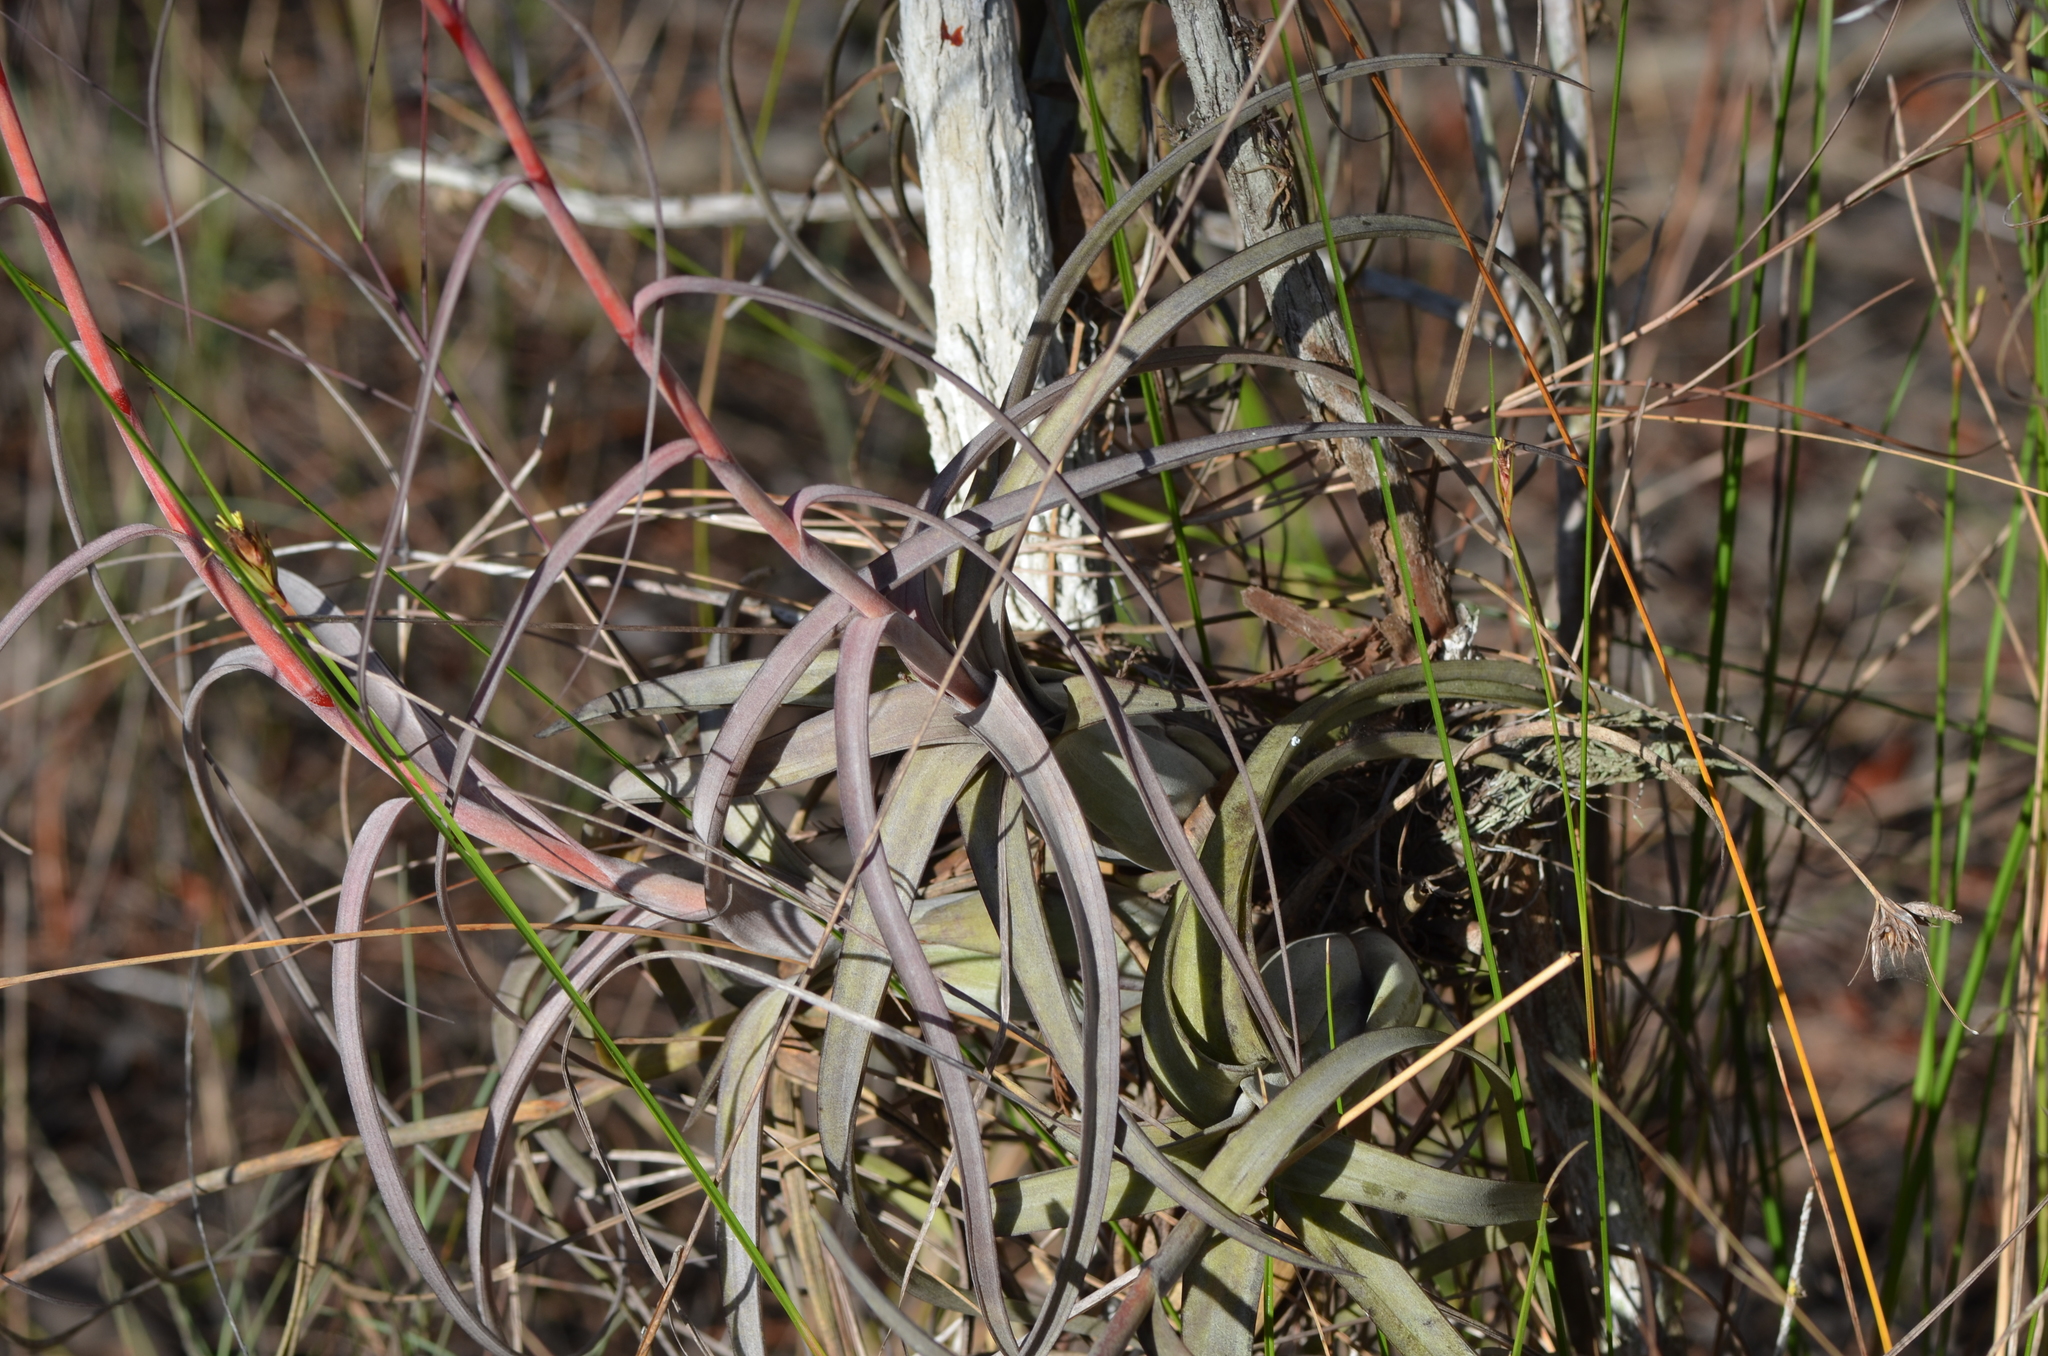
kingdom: Plantae
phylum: Tracheophyta
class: Liliopsida
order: Poales
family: Bromeliaceae
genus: Tillandsia
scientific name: Tillandsia balbisiana
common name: Northern needleleaf
